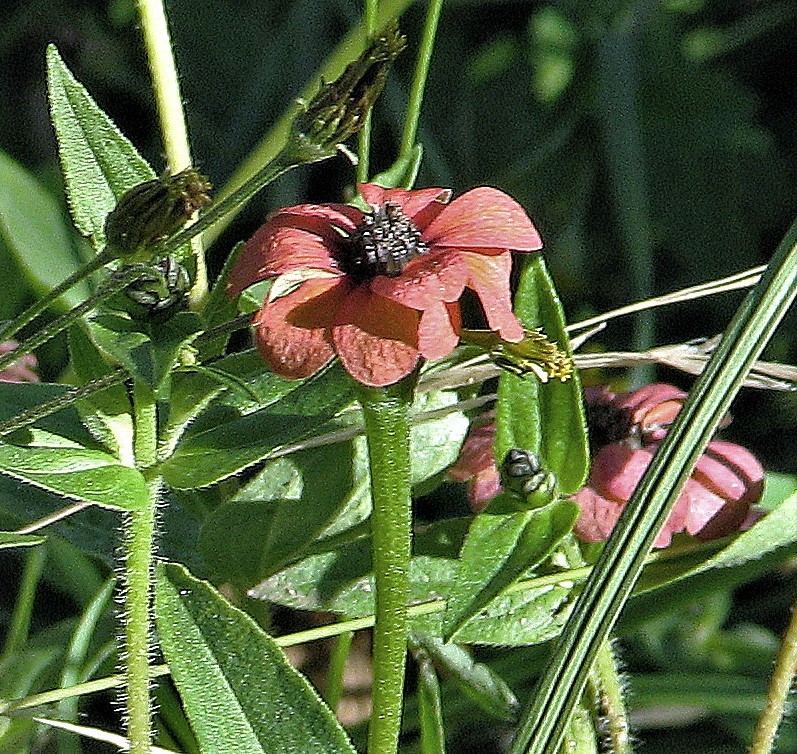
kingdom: Plantae
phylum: Tracheophyta
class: Magnoliopsida
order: Asterales
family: Asteraceae
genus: Zinnia
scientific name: Zinnia peruviana
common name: Peruvian zinnia
